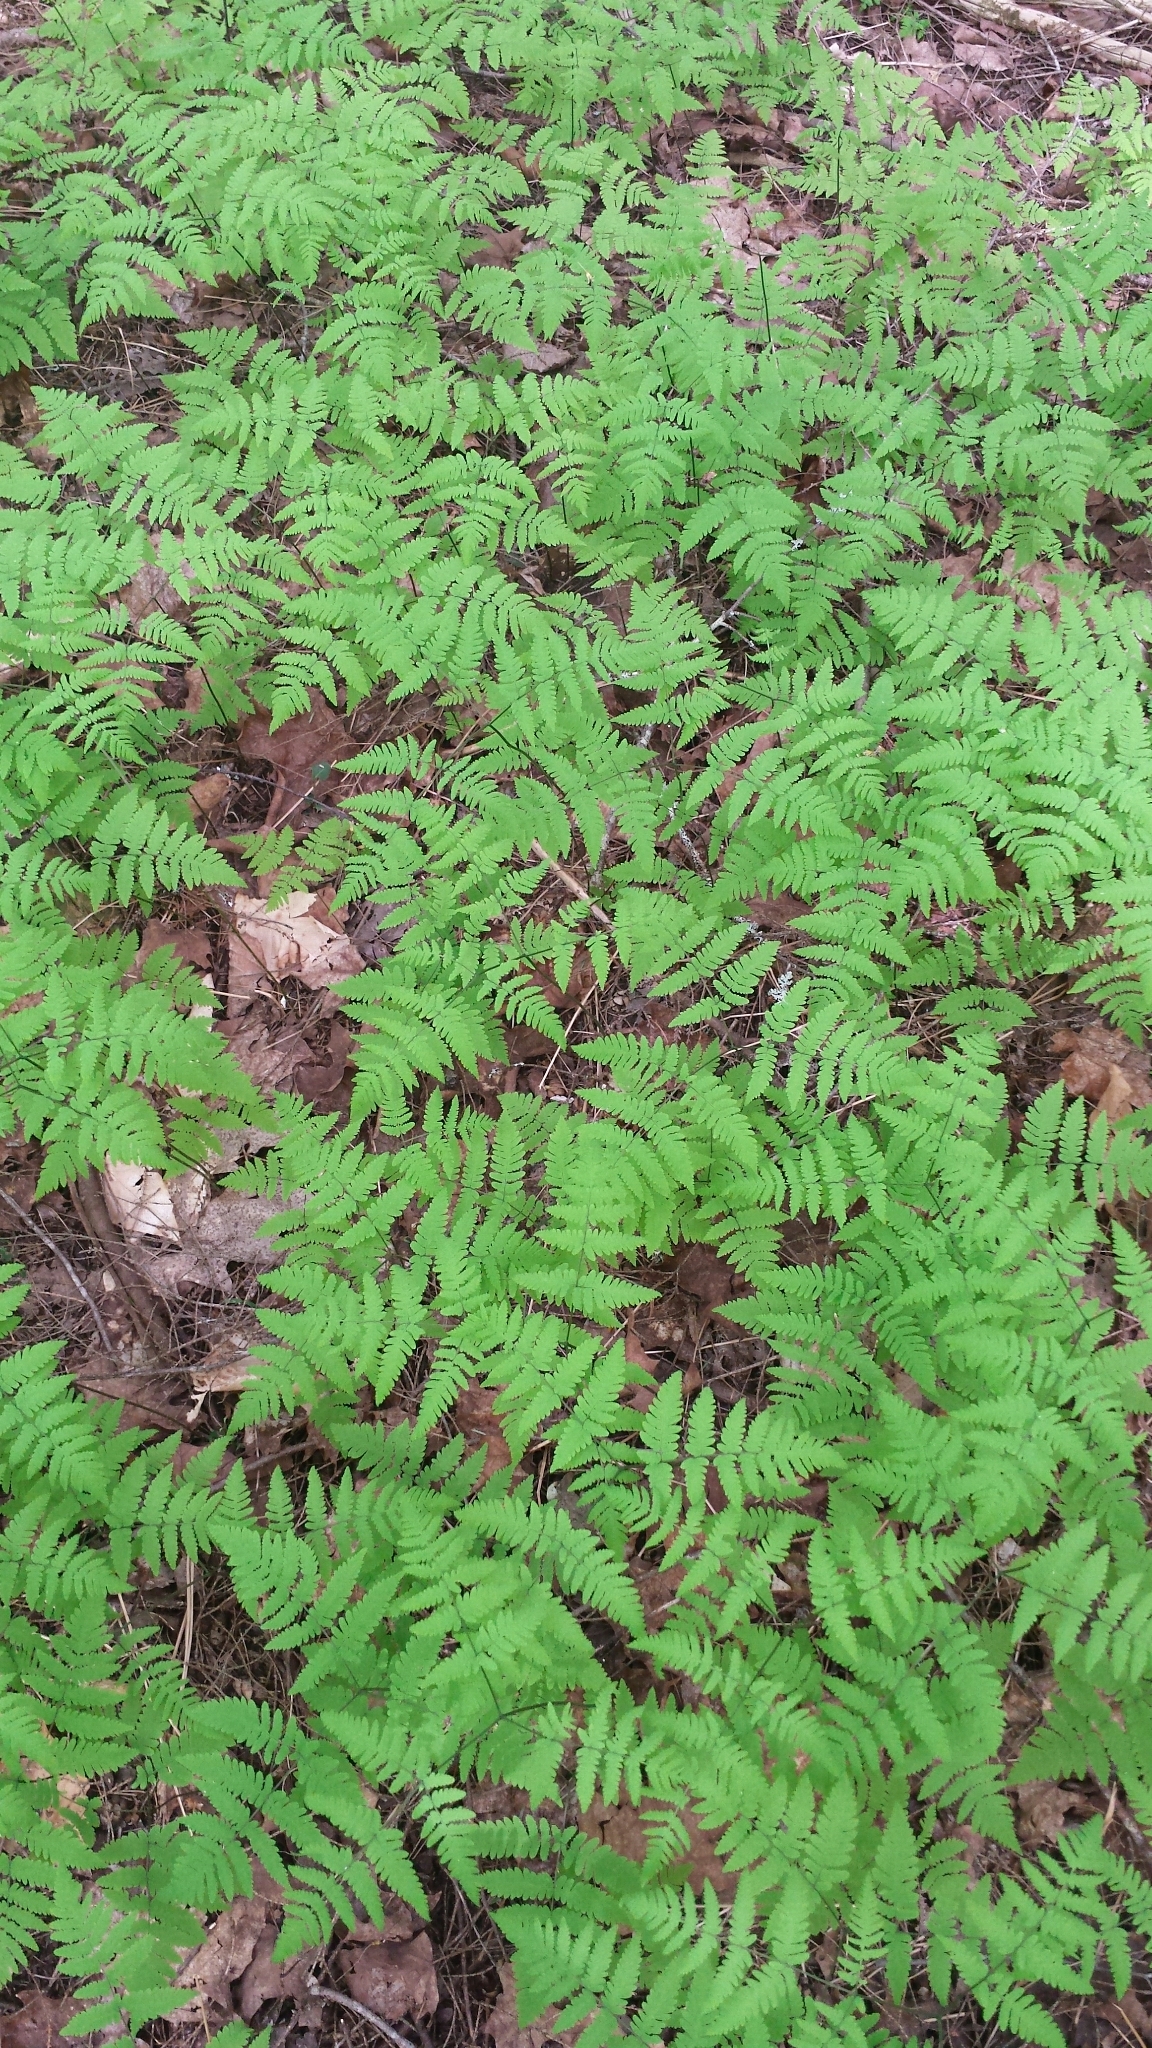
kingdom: Plantae
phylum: Tracheophyta
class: Polypodiopsida
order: Polypodiales
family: Cystopteridaceae
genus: Gymnocarpium
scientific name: Gymnocarpium dryopteris
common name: Oak fern
